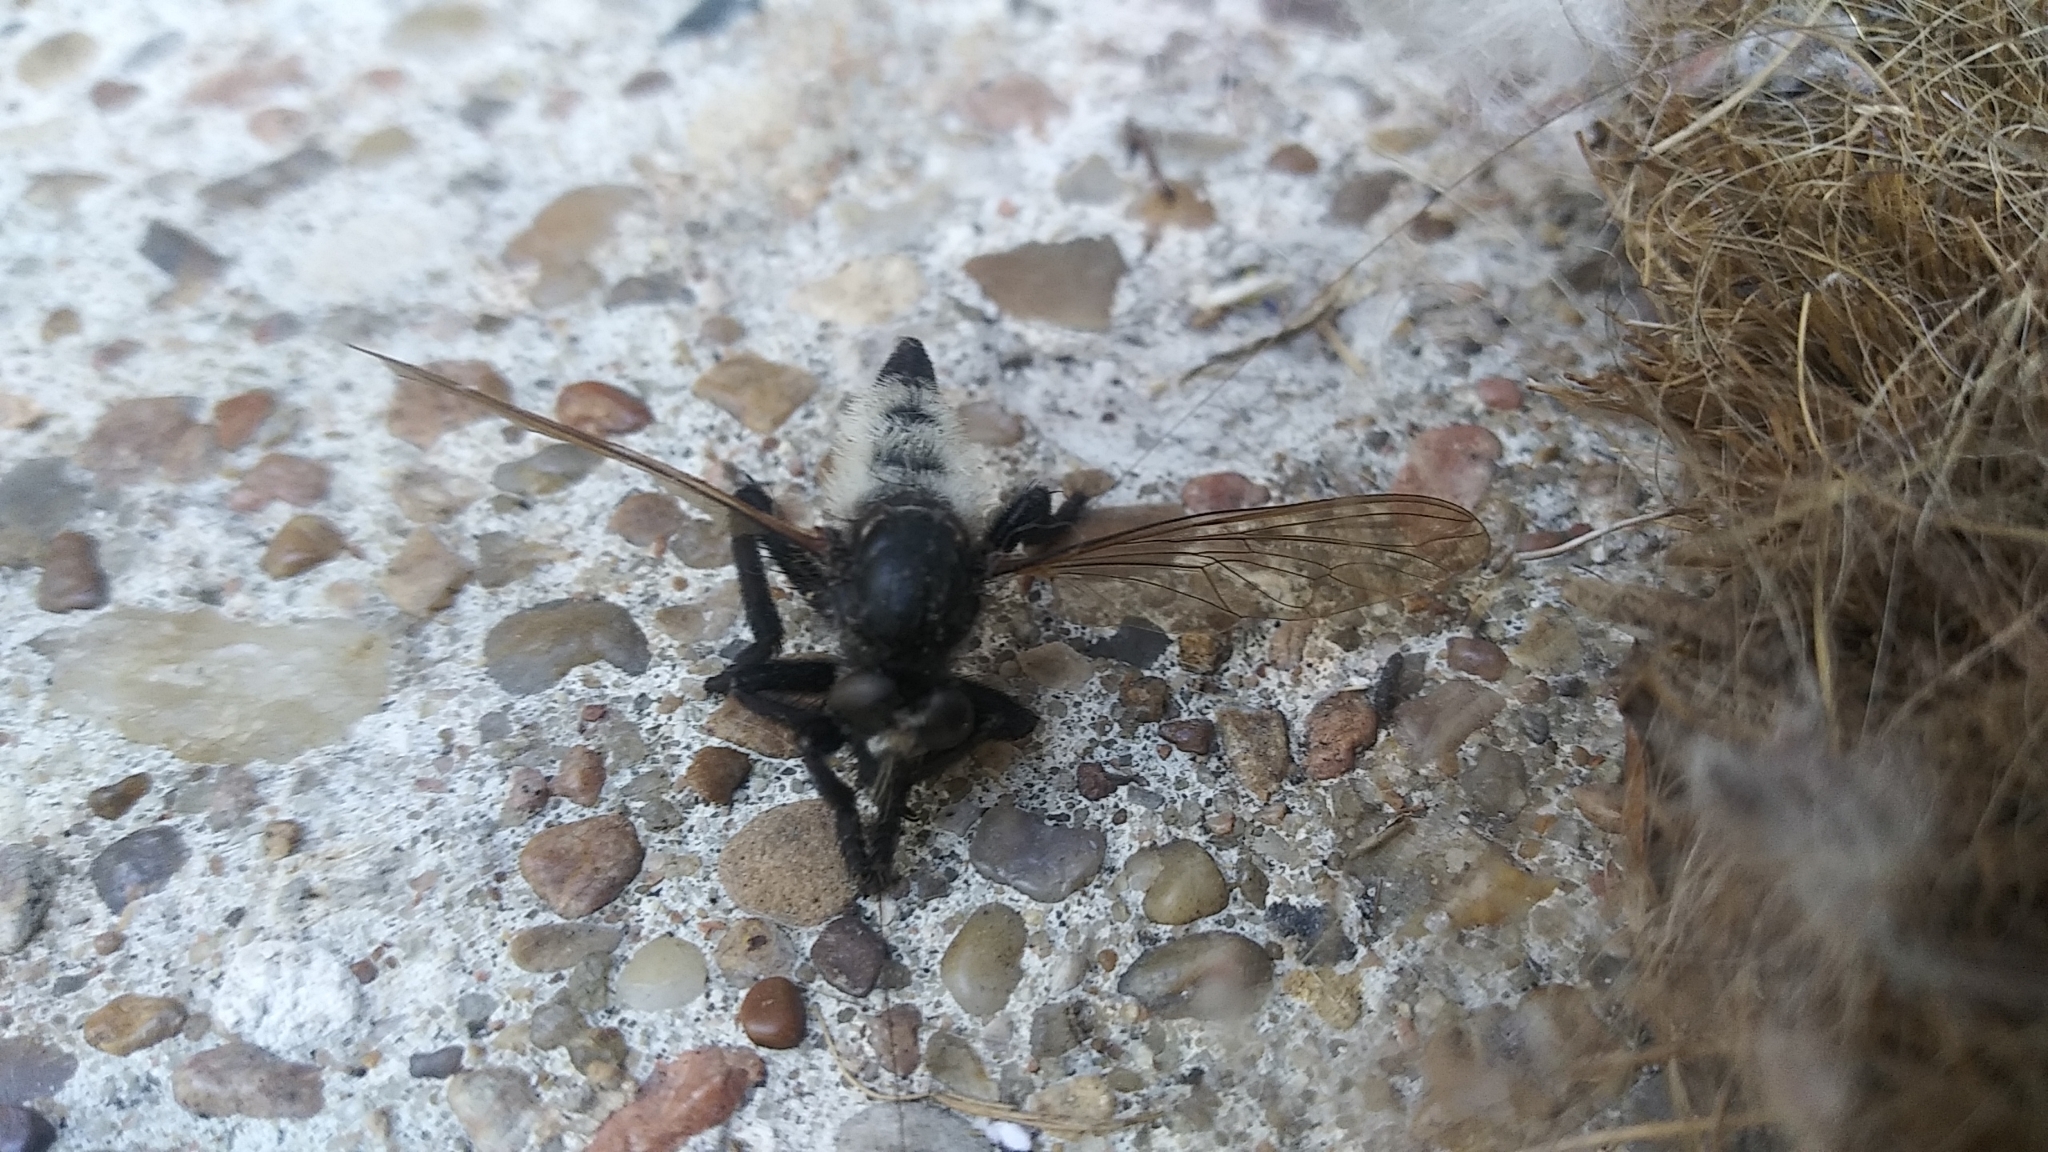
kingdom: Animalia
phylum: Arthropoda
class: Insecta
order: Diptera
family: Asilidae
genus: Promachus
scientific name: Promachus painteri
